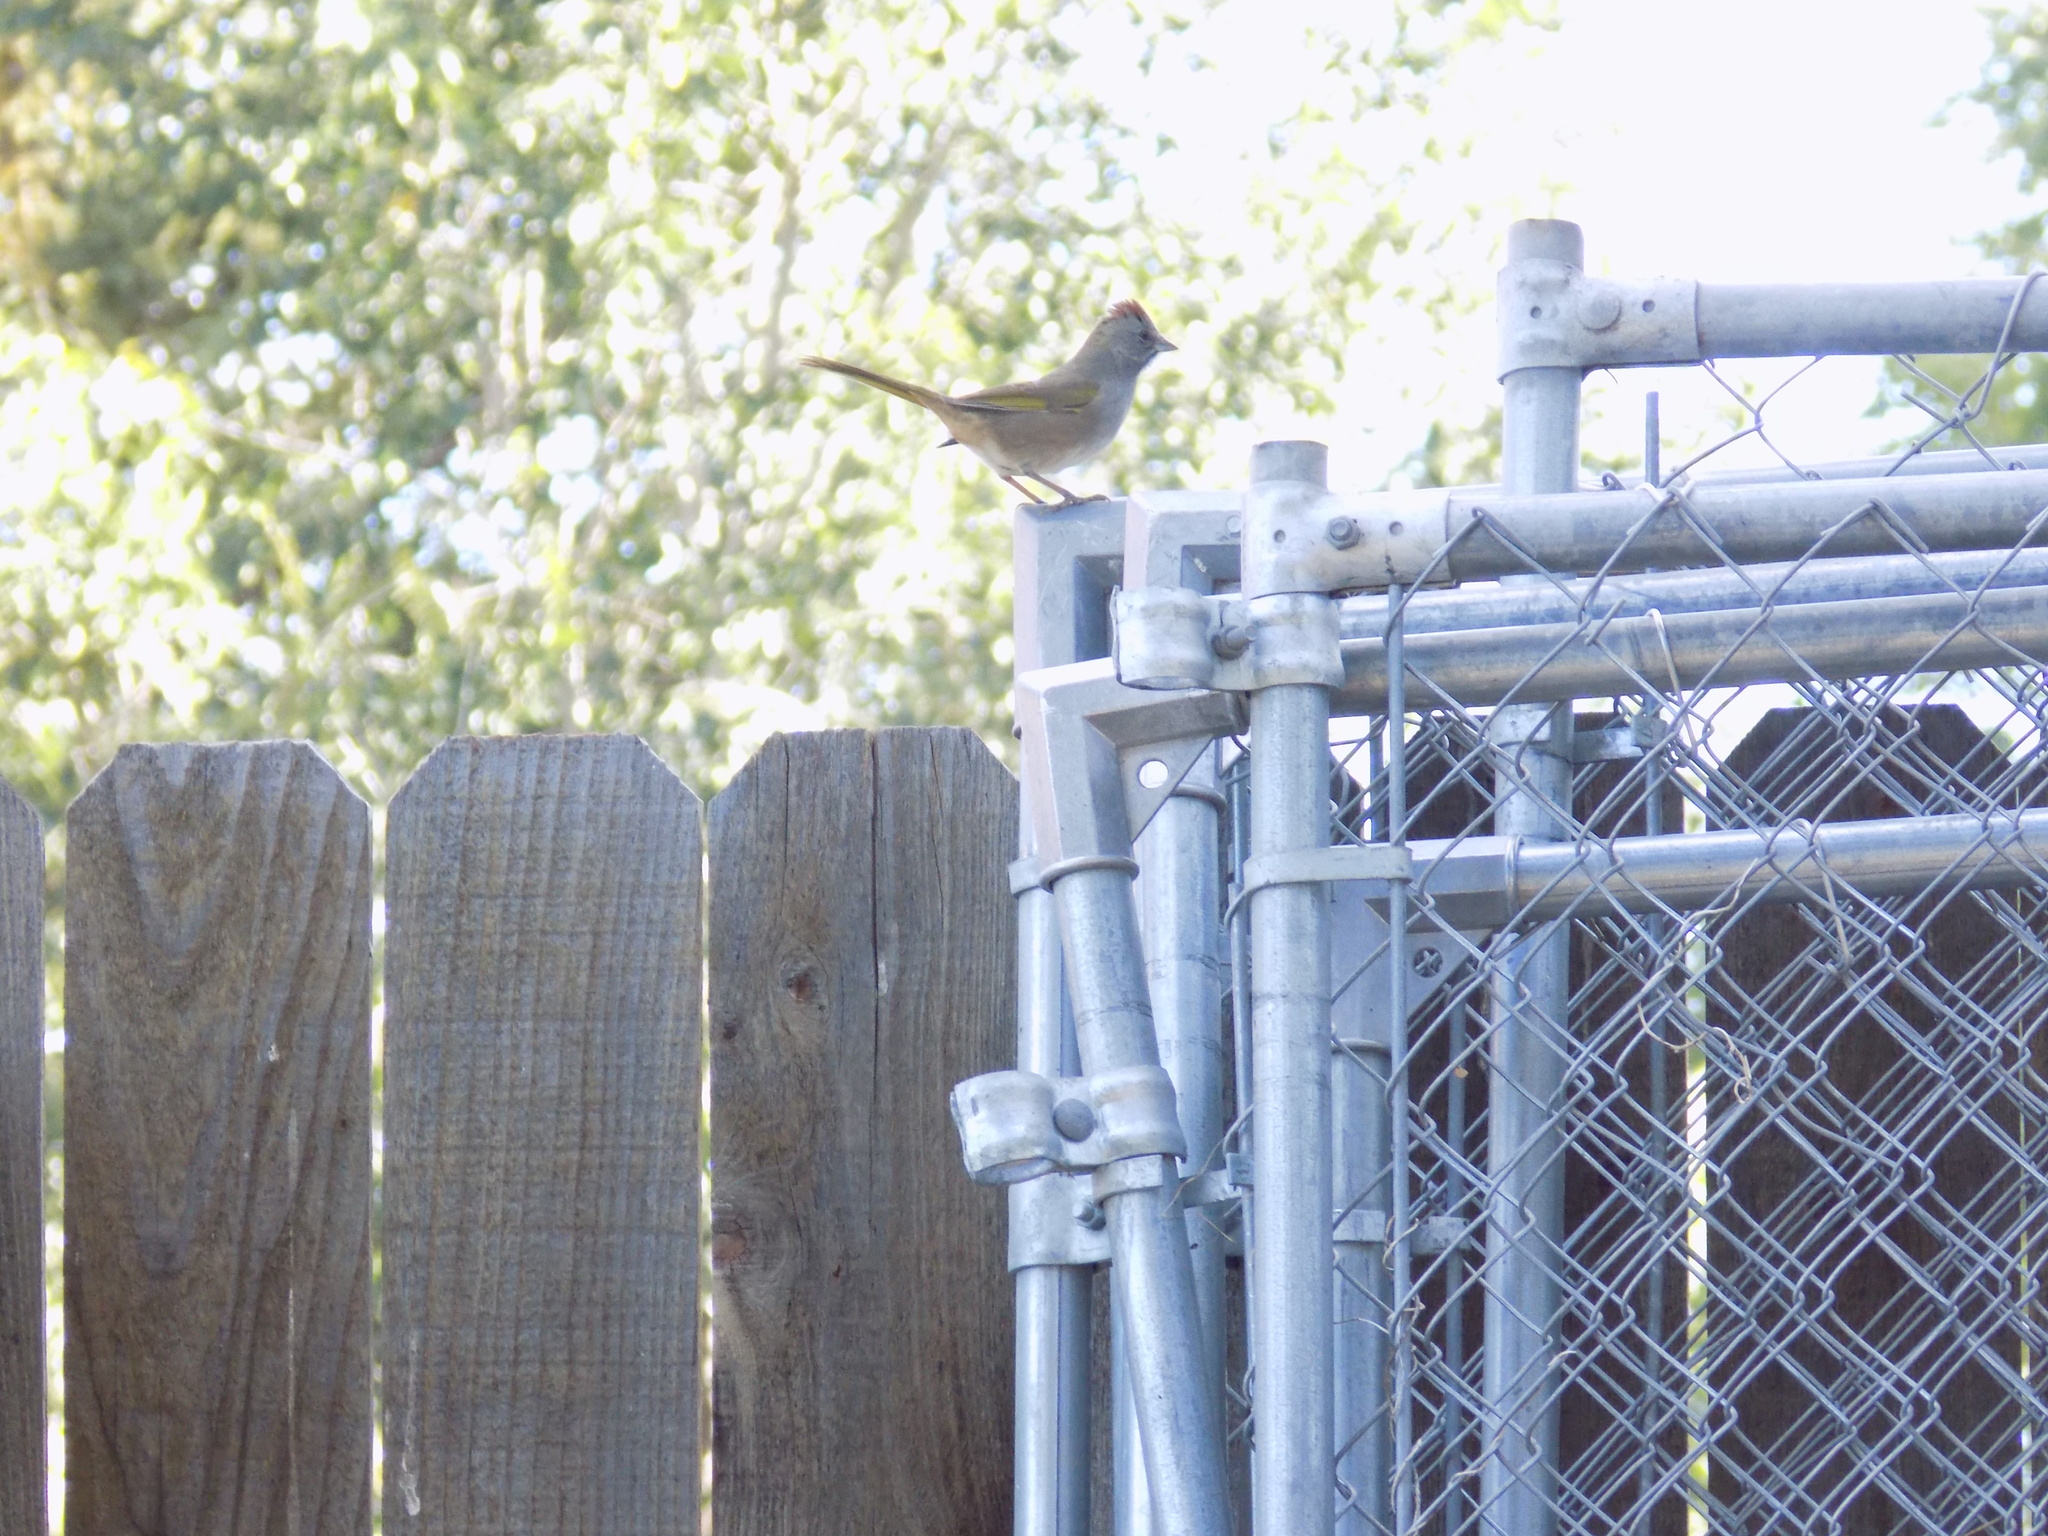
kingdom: Animalia
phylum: Chordata
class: Aves
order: Passeriformes
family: Passerellidae
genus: Pipilo
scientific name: Pipilo chlorurus
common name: Green-tailed towhee
